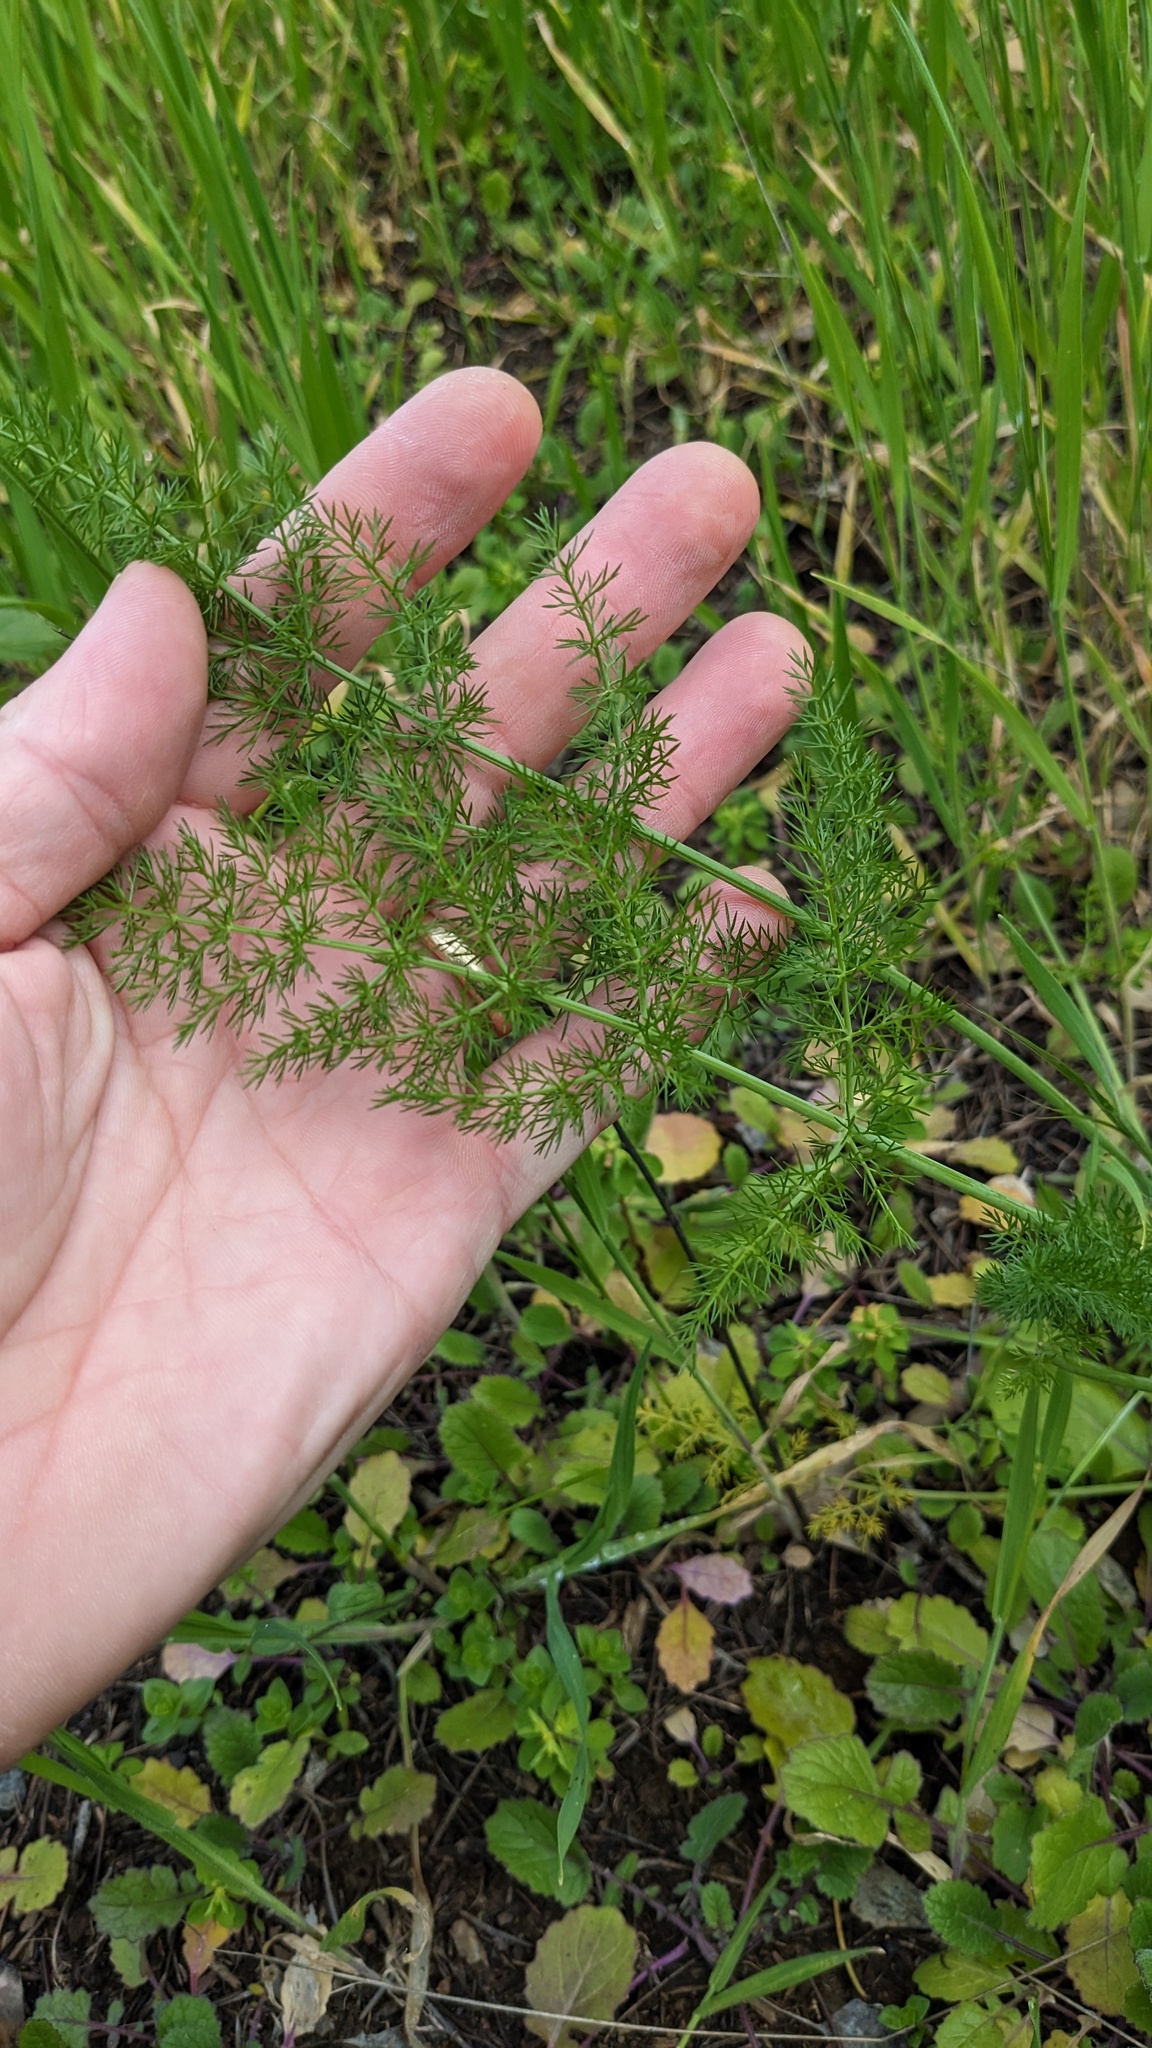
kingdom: Plantae
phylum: Tracheophyta
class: Magnoliopsida
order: Apiales
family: Apiaceae
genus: Foeniculum
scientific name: Foeniculum vulgare
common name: Fennel
